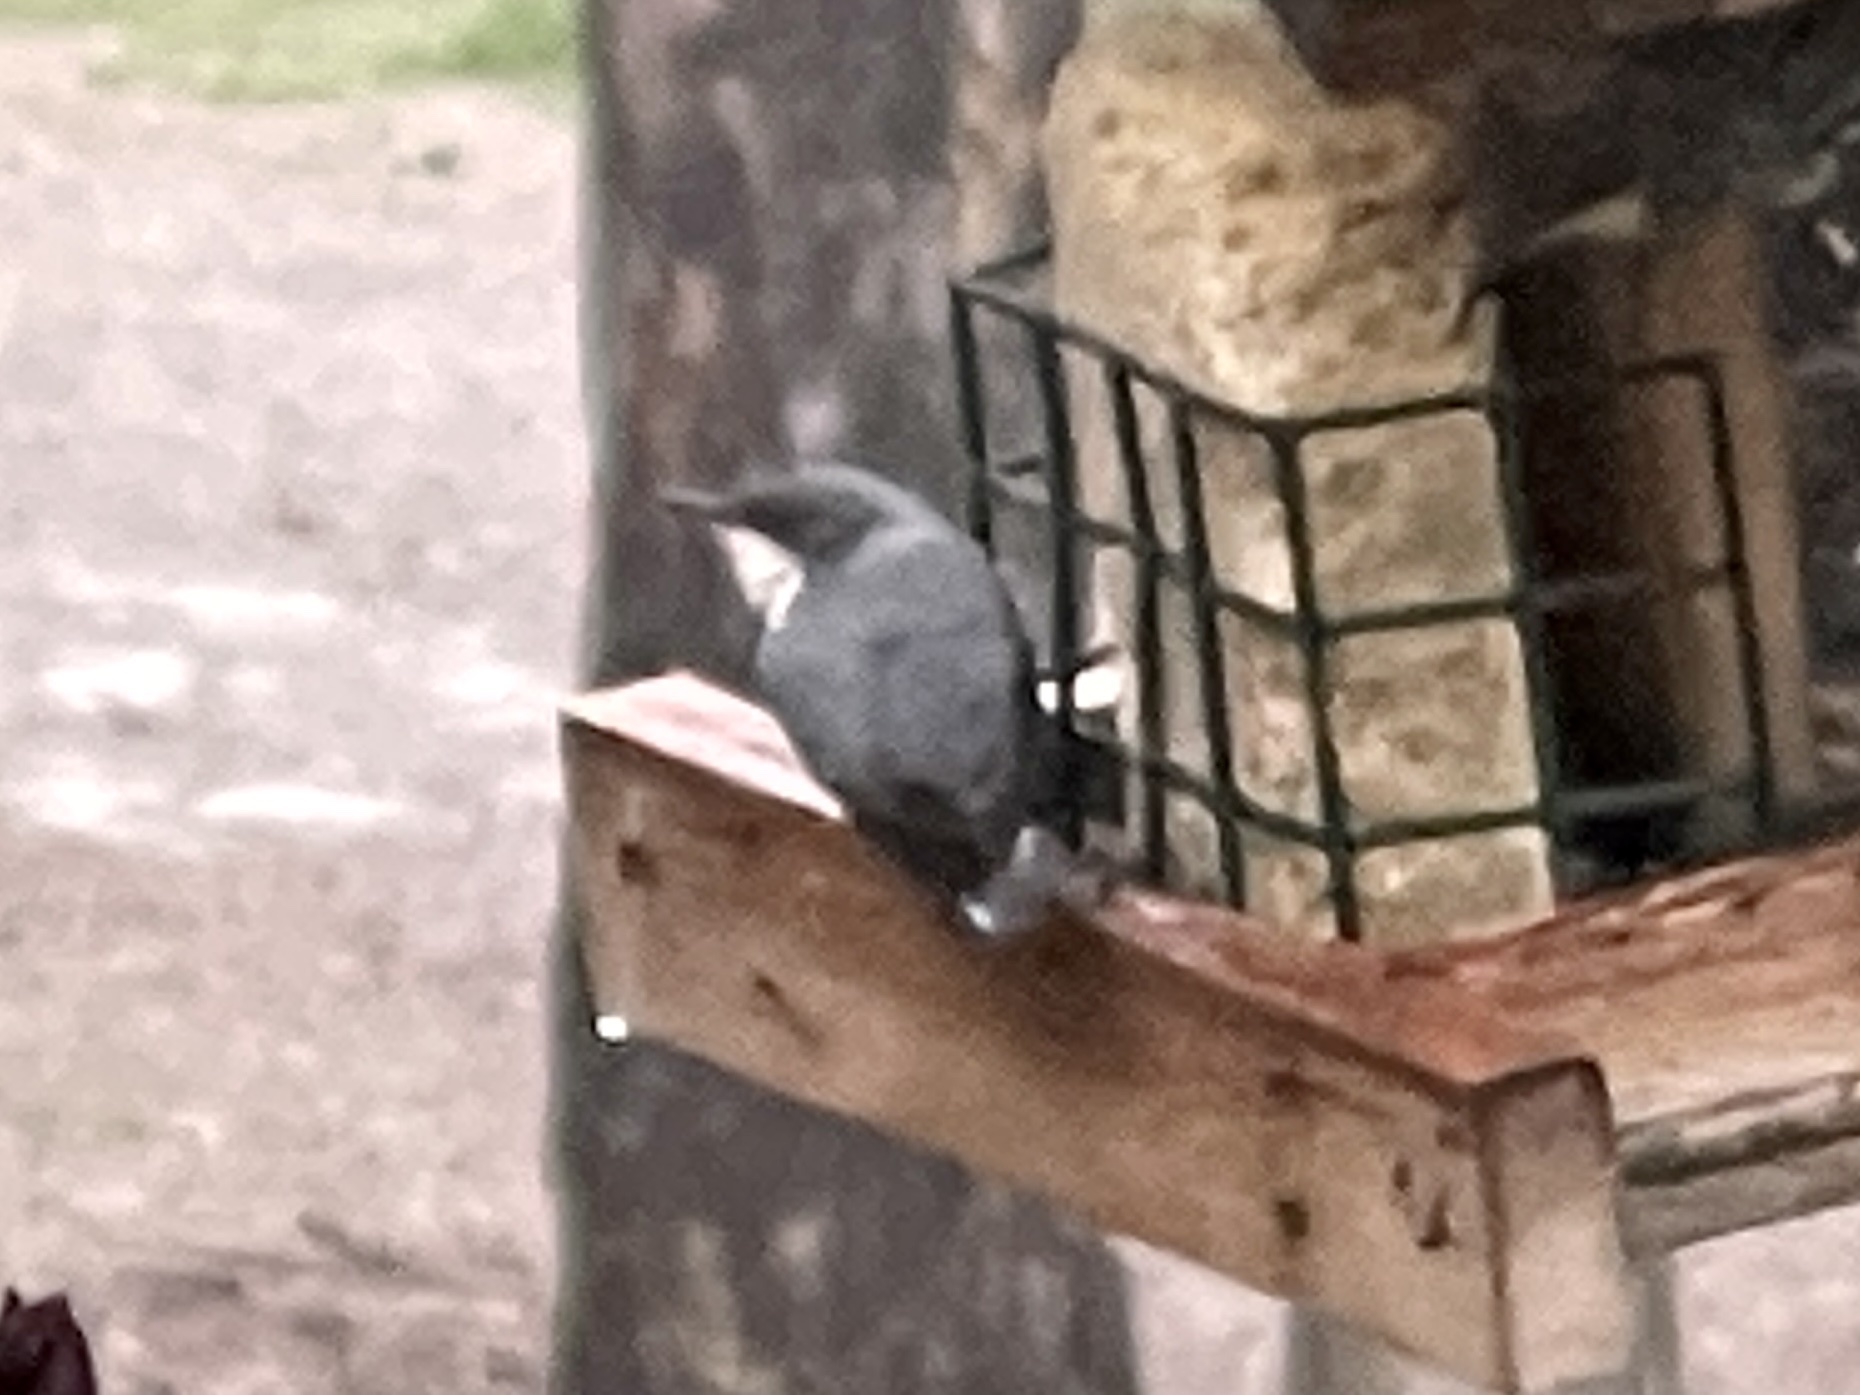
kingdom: Animalia
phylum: Chordata
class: Aves
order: Passeriformes
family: Sittidae
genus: Sitta
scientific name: Sitta pygmaea
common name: Pygmy nuthatch
